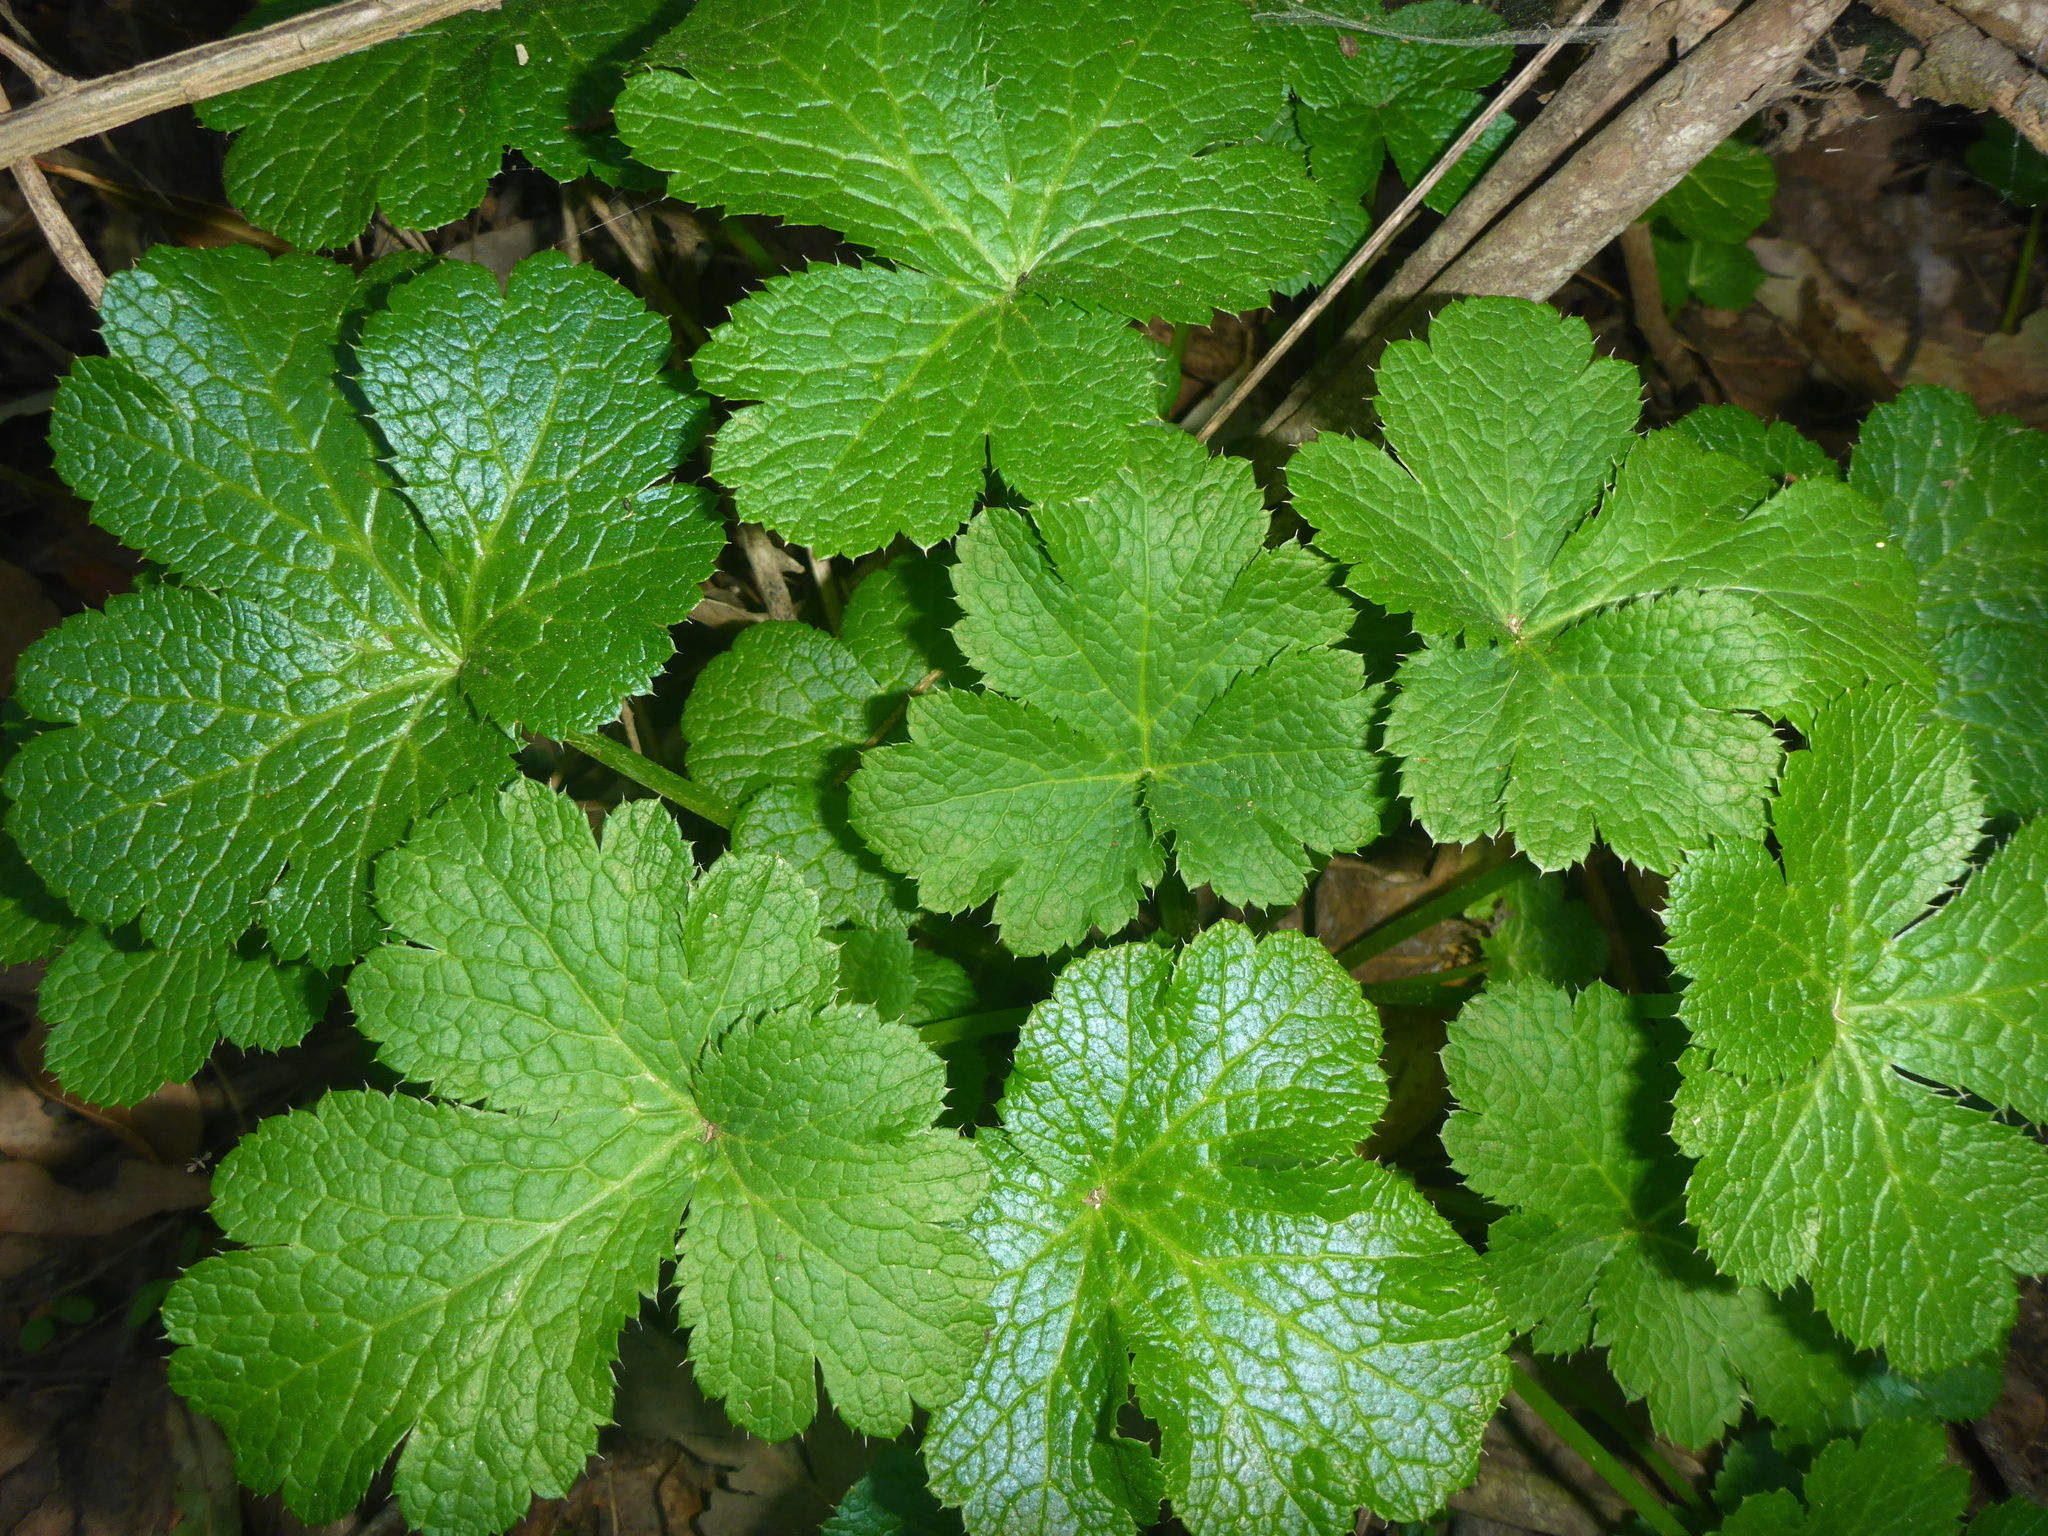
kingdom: Plantae
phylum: Tracheophyta
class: Magnoliopsida
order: Apiales
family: Apiaceae
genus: Sanicula
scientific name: Sanicula crassicaulis
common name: Western snakeroot
